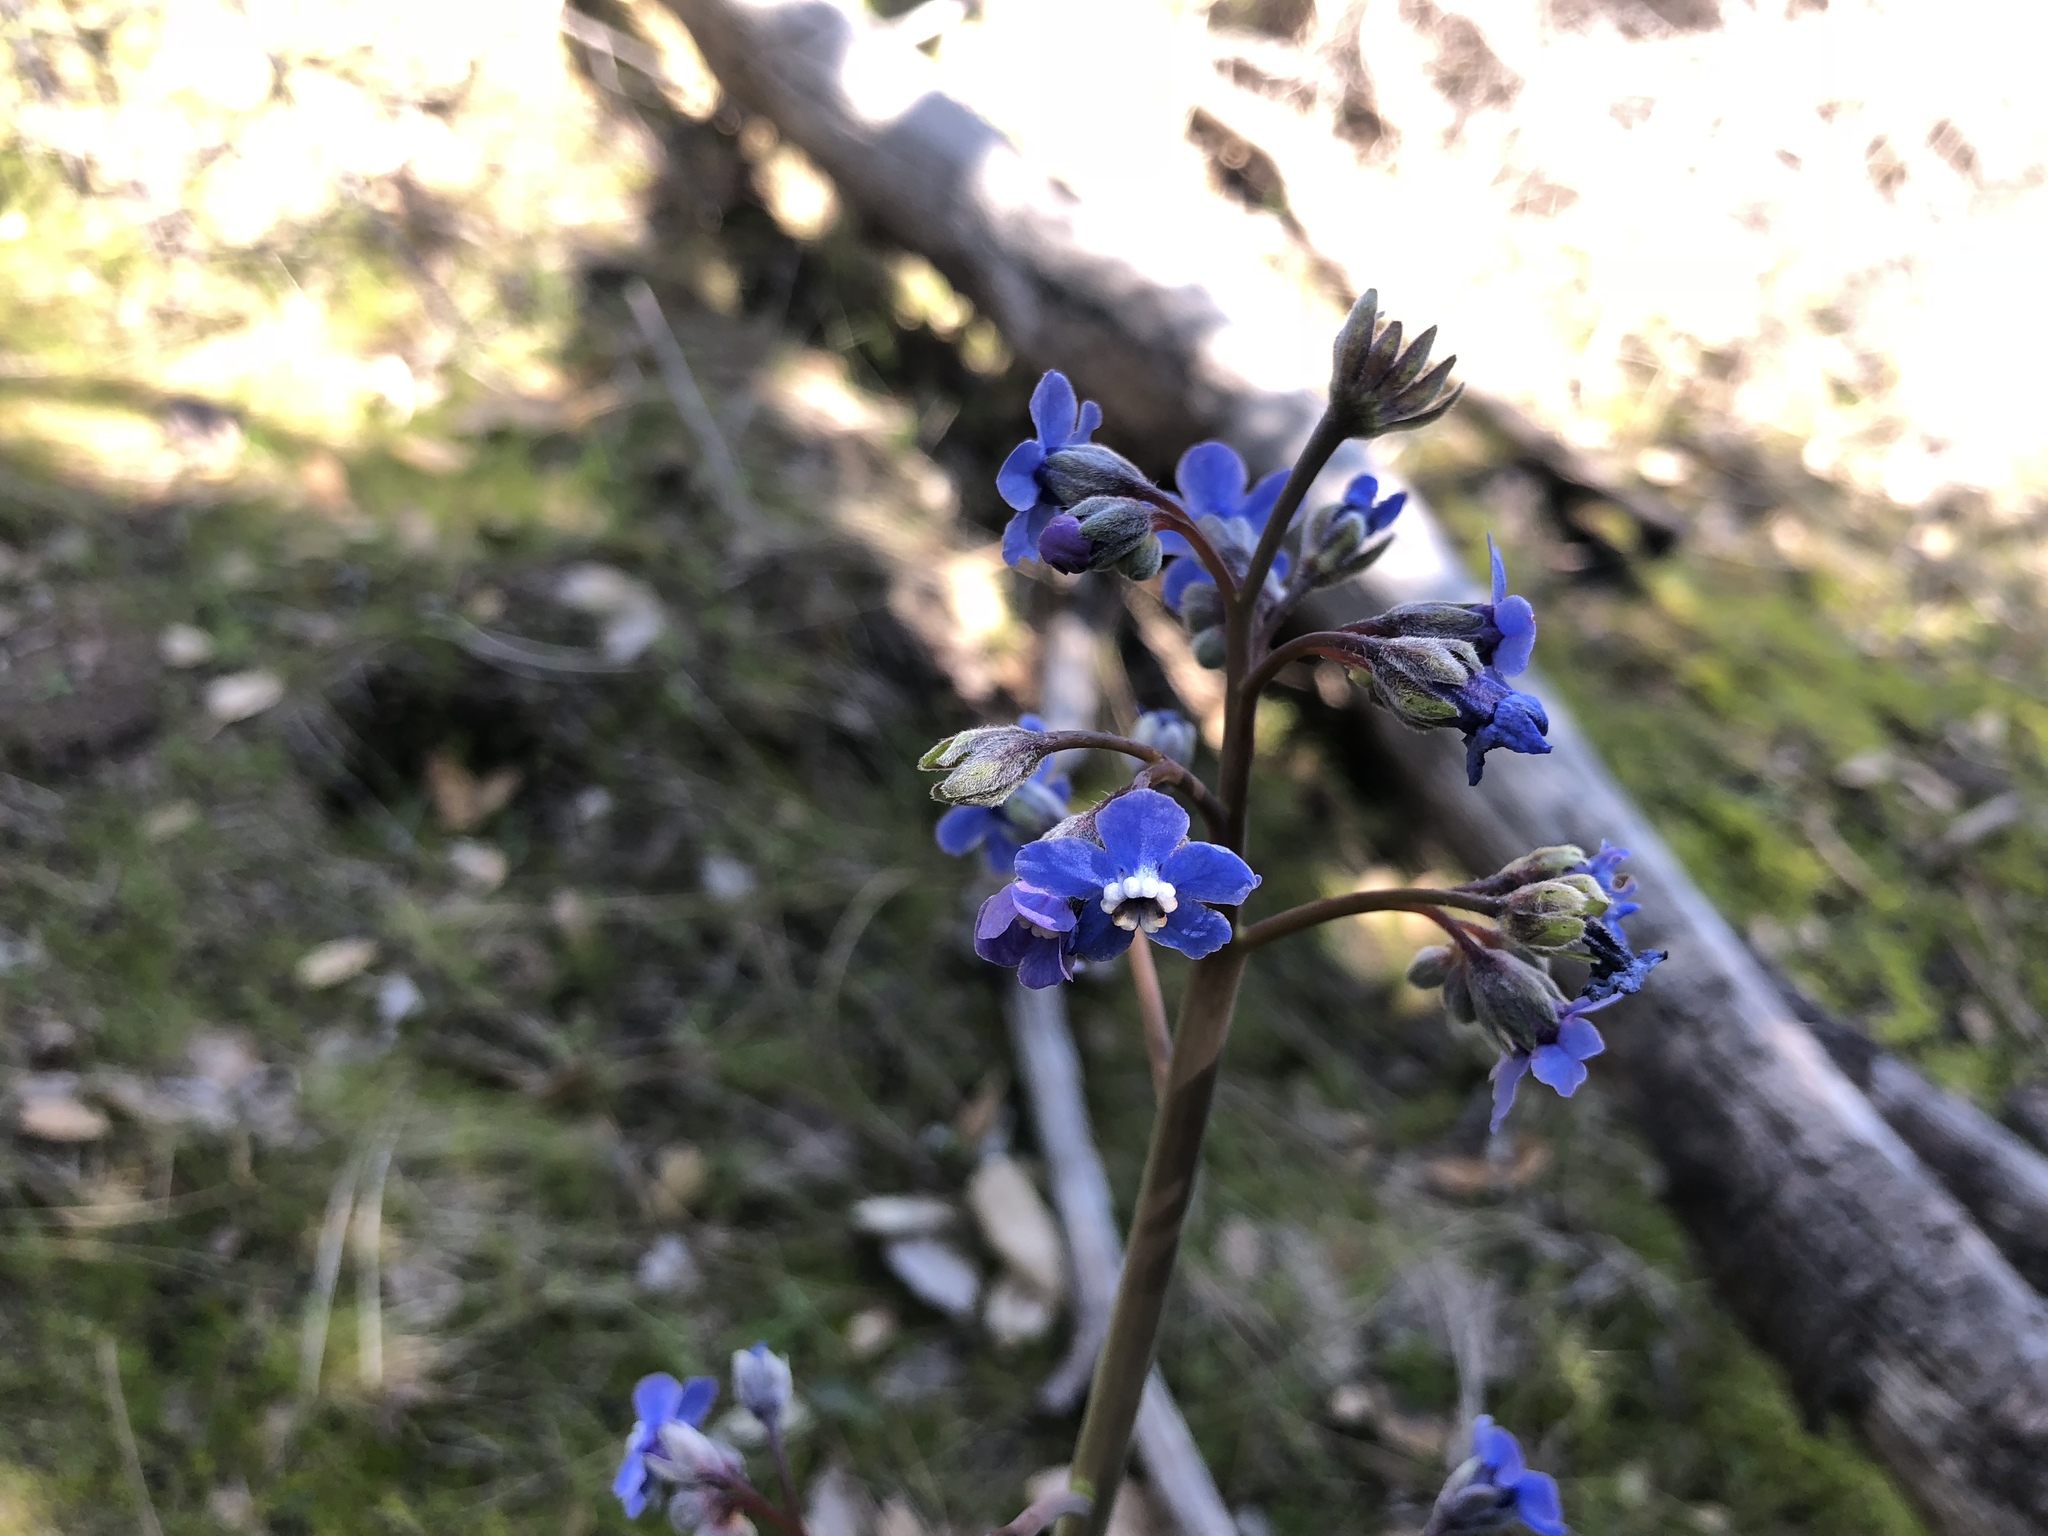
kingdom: Plantae
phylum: Tracheophyta
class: Magnoliopsida
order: Boraginales
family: Boraginaceae
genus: Adelinia
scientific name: Adelinia grande
